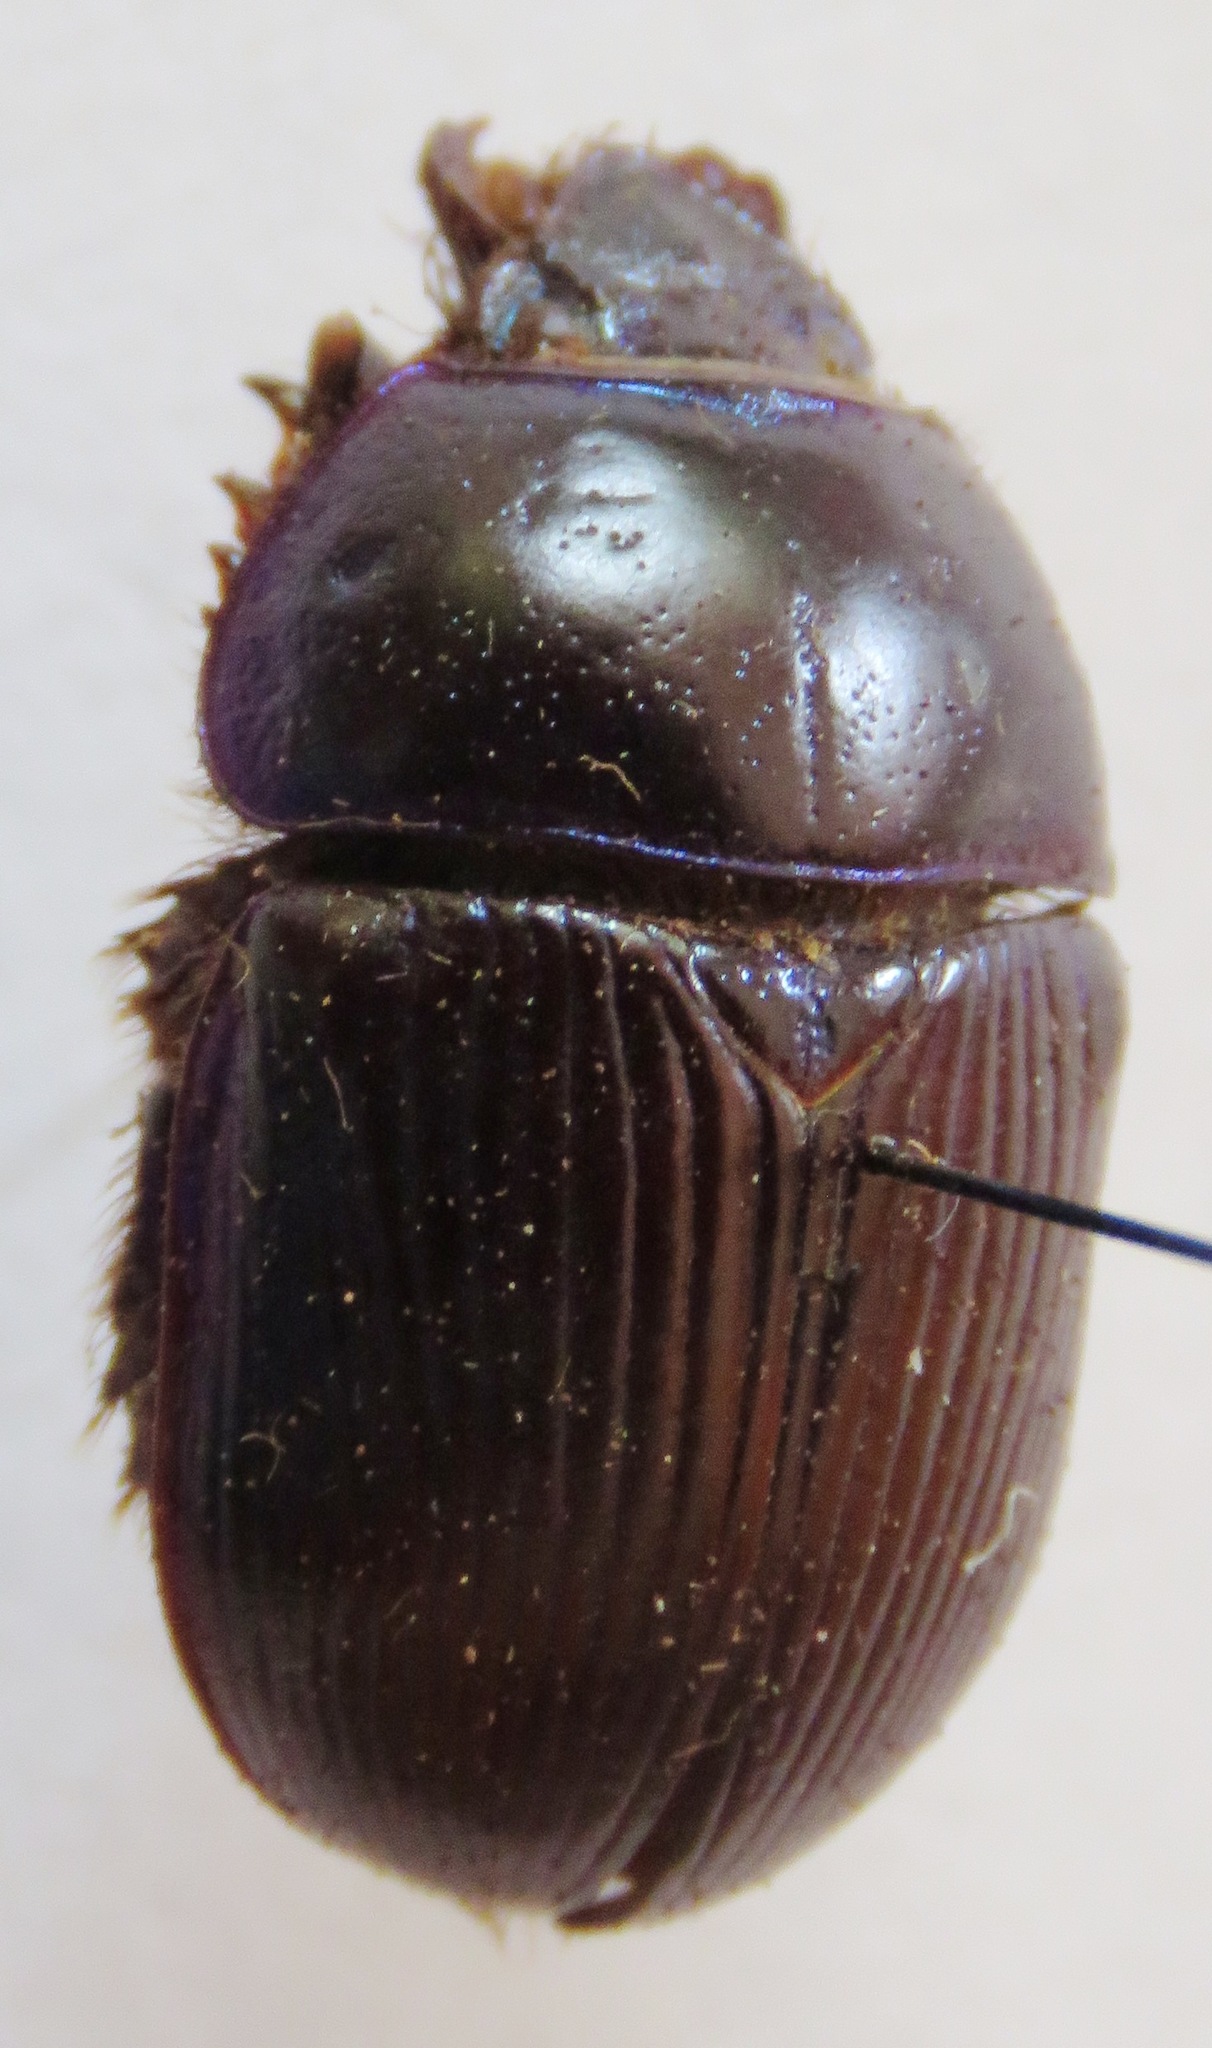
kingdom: Animalia
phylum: Arthropoda
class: Insecta
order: Coleoptera
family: Geotrupidae
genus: Geotrupes
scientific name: Geotrupes ibericus
